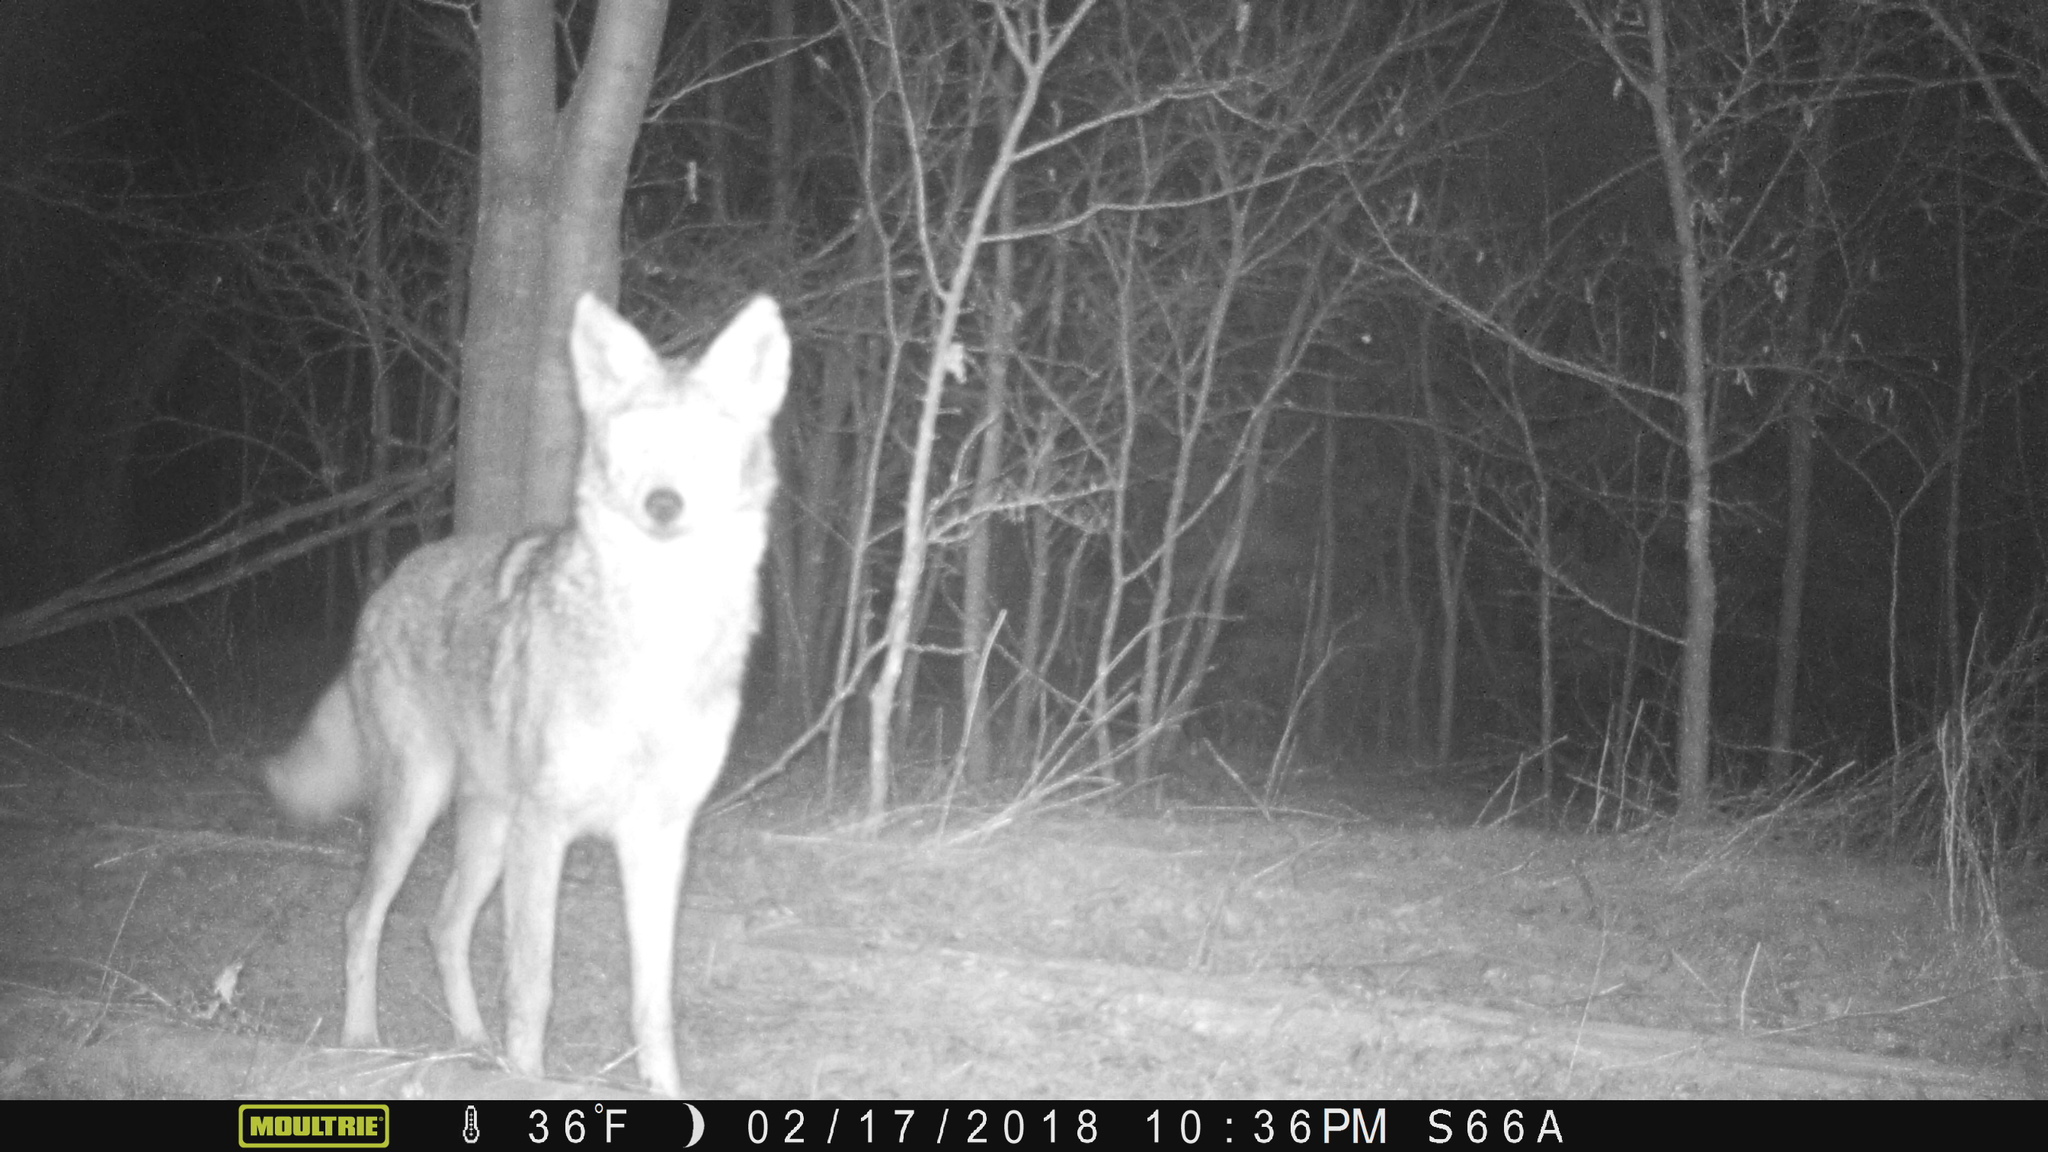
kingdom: Animalia
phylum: Chordata
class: Mammalia
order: Carnivora
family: Canidae
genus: Canis
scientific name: Canis latrans
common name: Coyote
